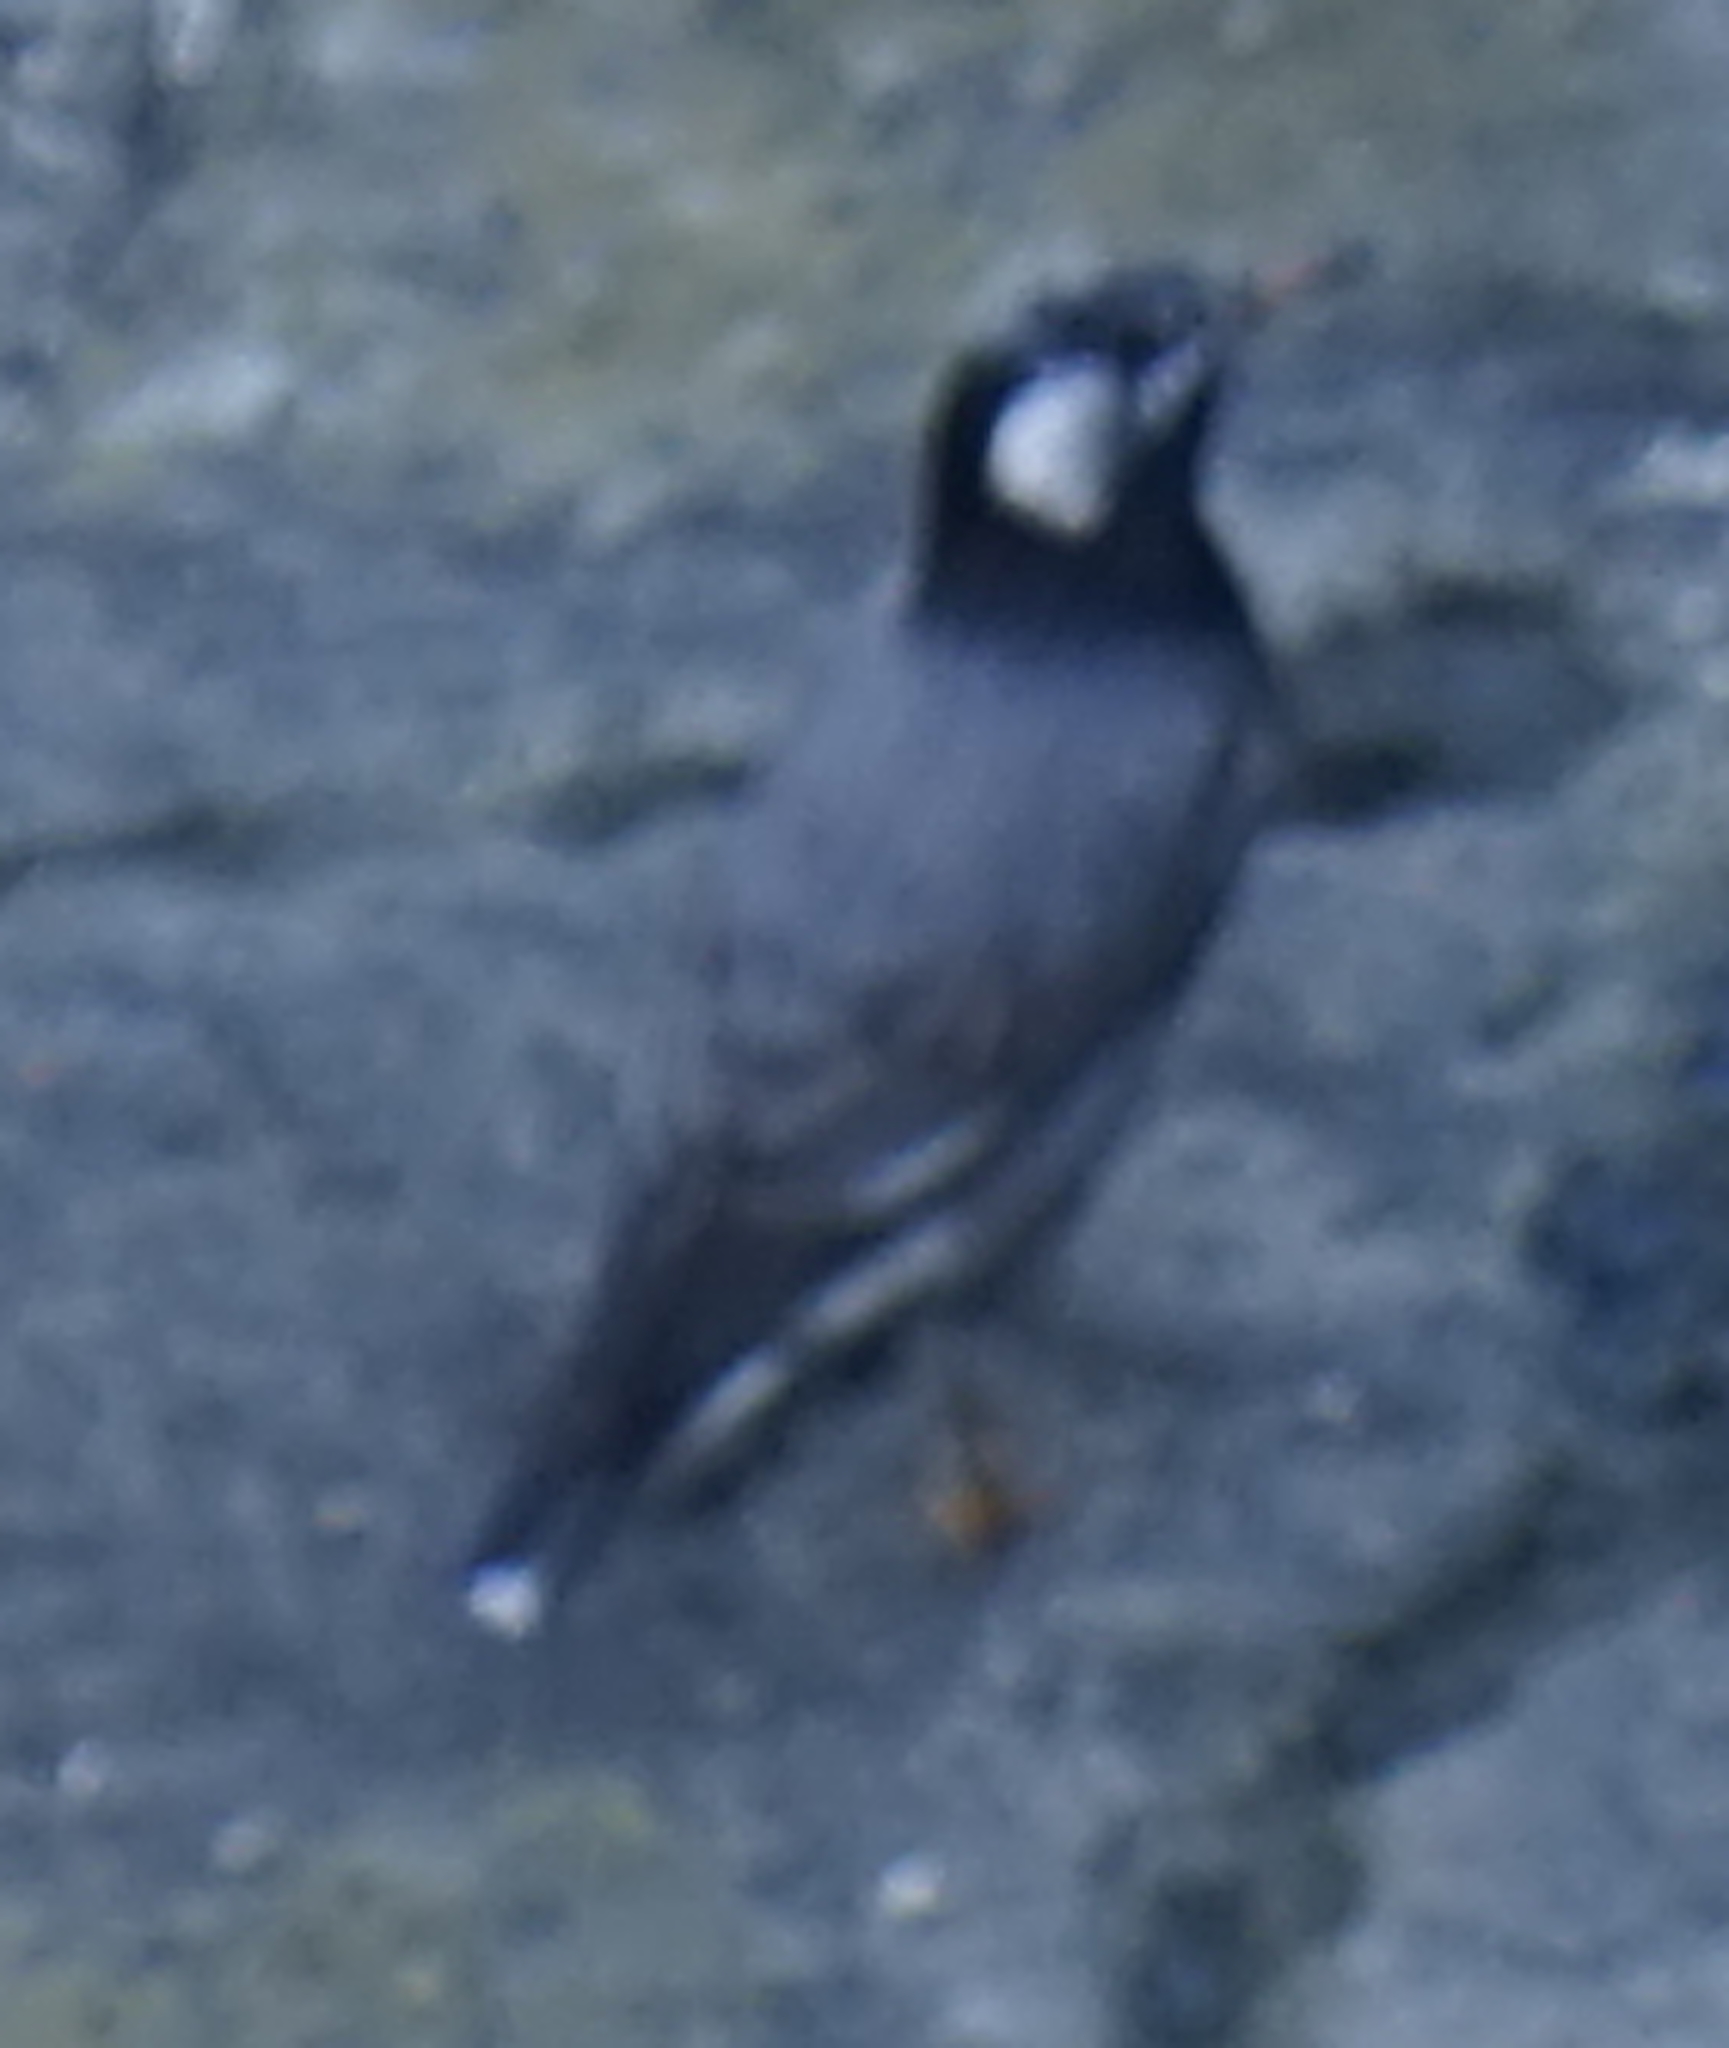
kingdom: Animalia
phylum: Chordata
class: Aves
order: Passeriformes
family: Sturnidae
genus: Spodiopsar
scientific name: Spodiopsar cineraceus
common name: White-cheeked starling
